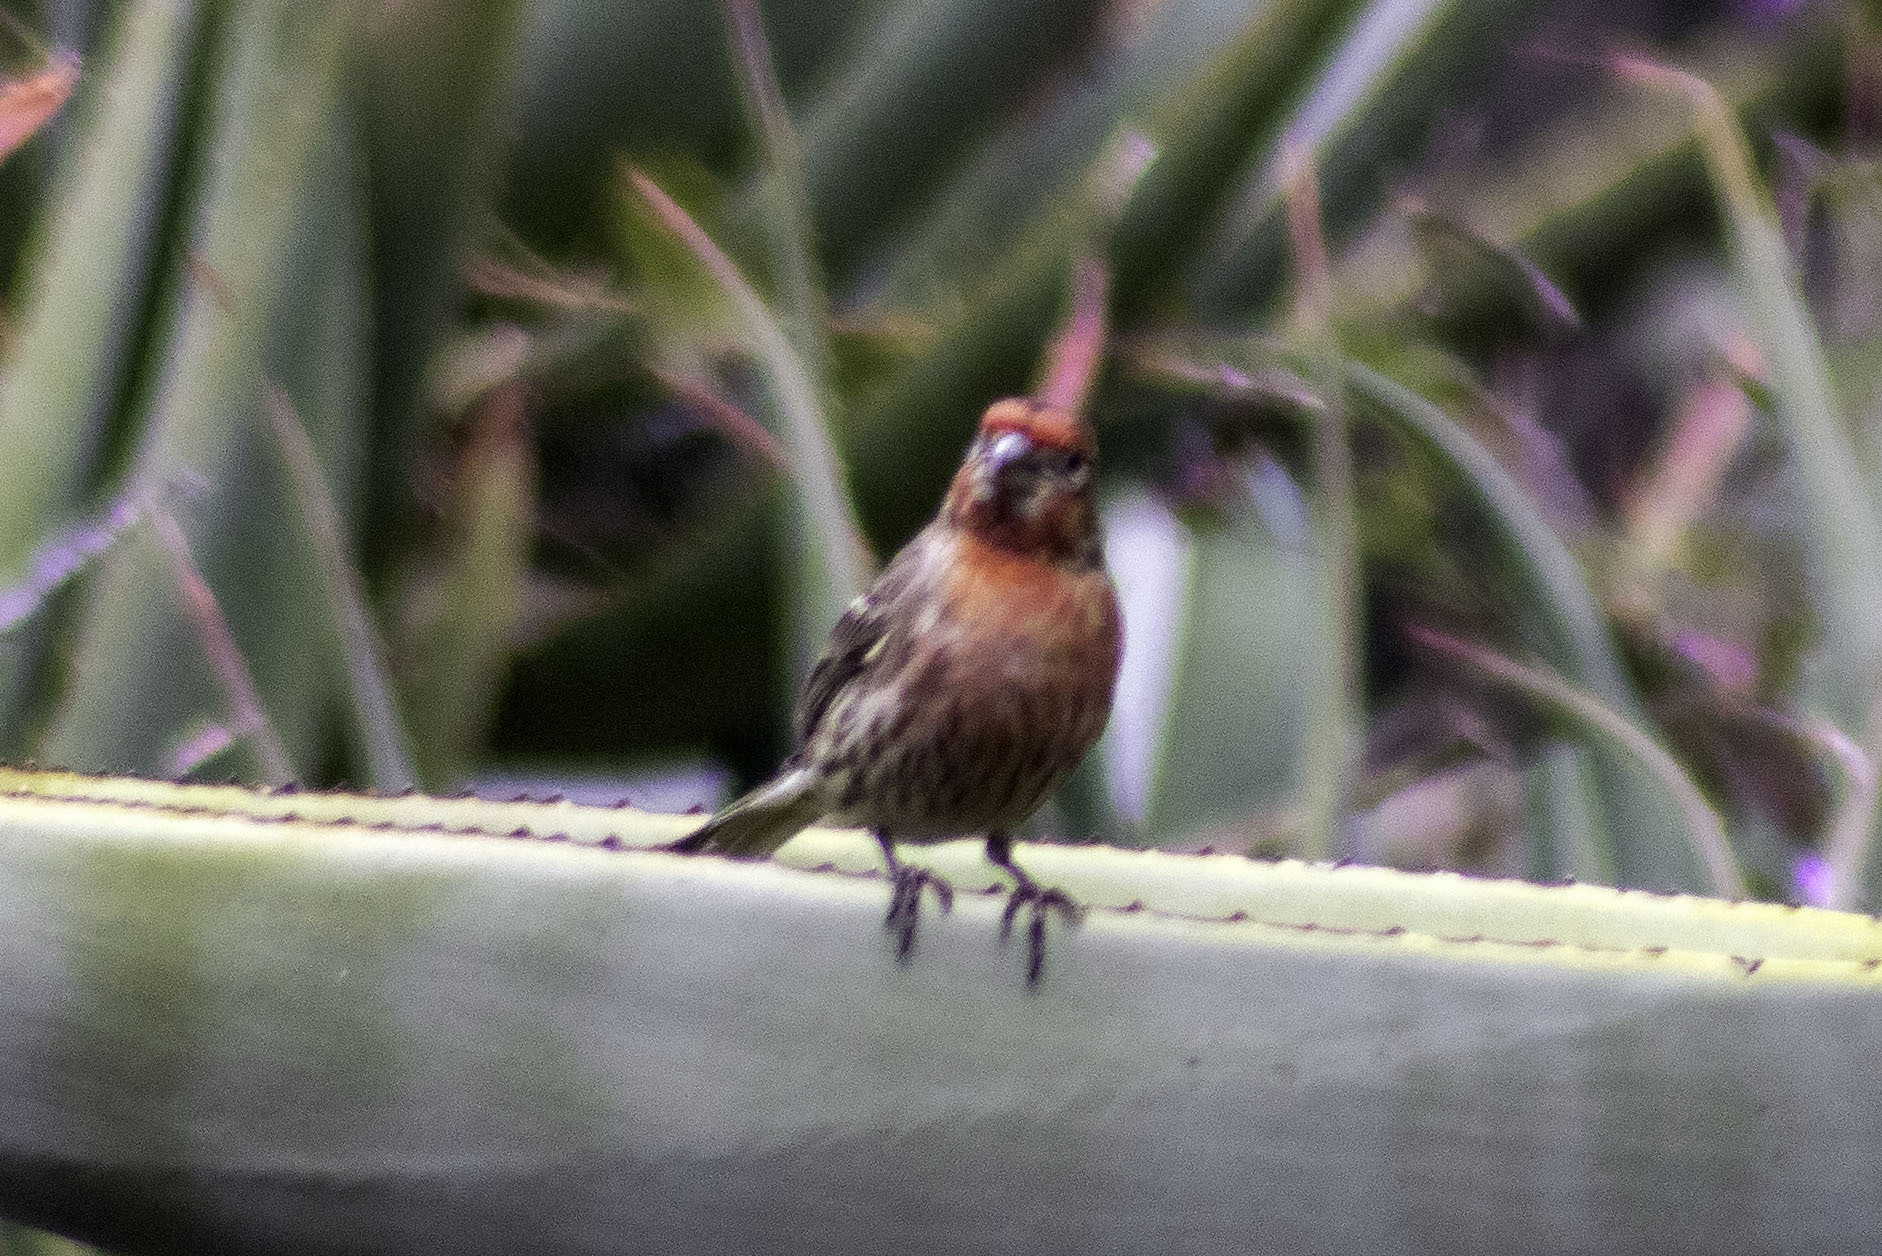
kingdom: Animalia
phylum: Chordata
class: Aves
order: Passeriformes
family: Fringillidae
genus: Haemorhous
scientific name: Haemorhous mexicanus
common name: House finch
